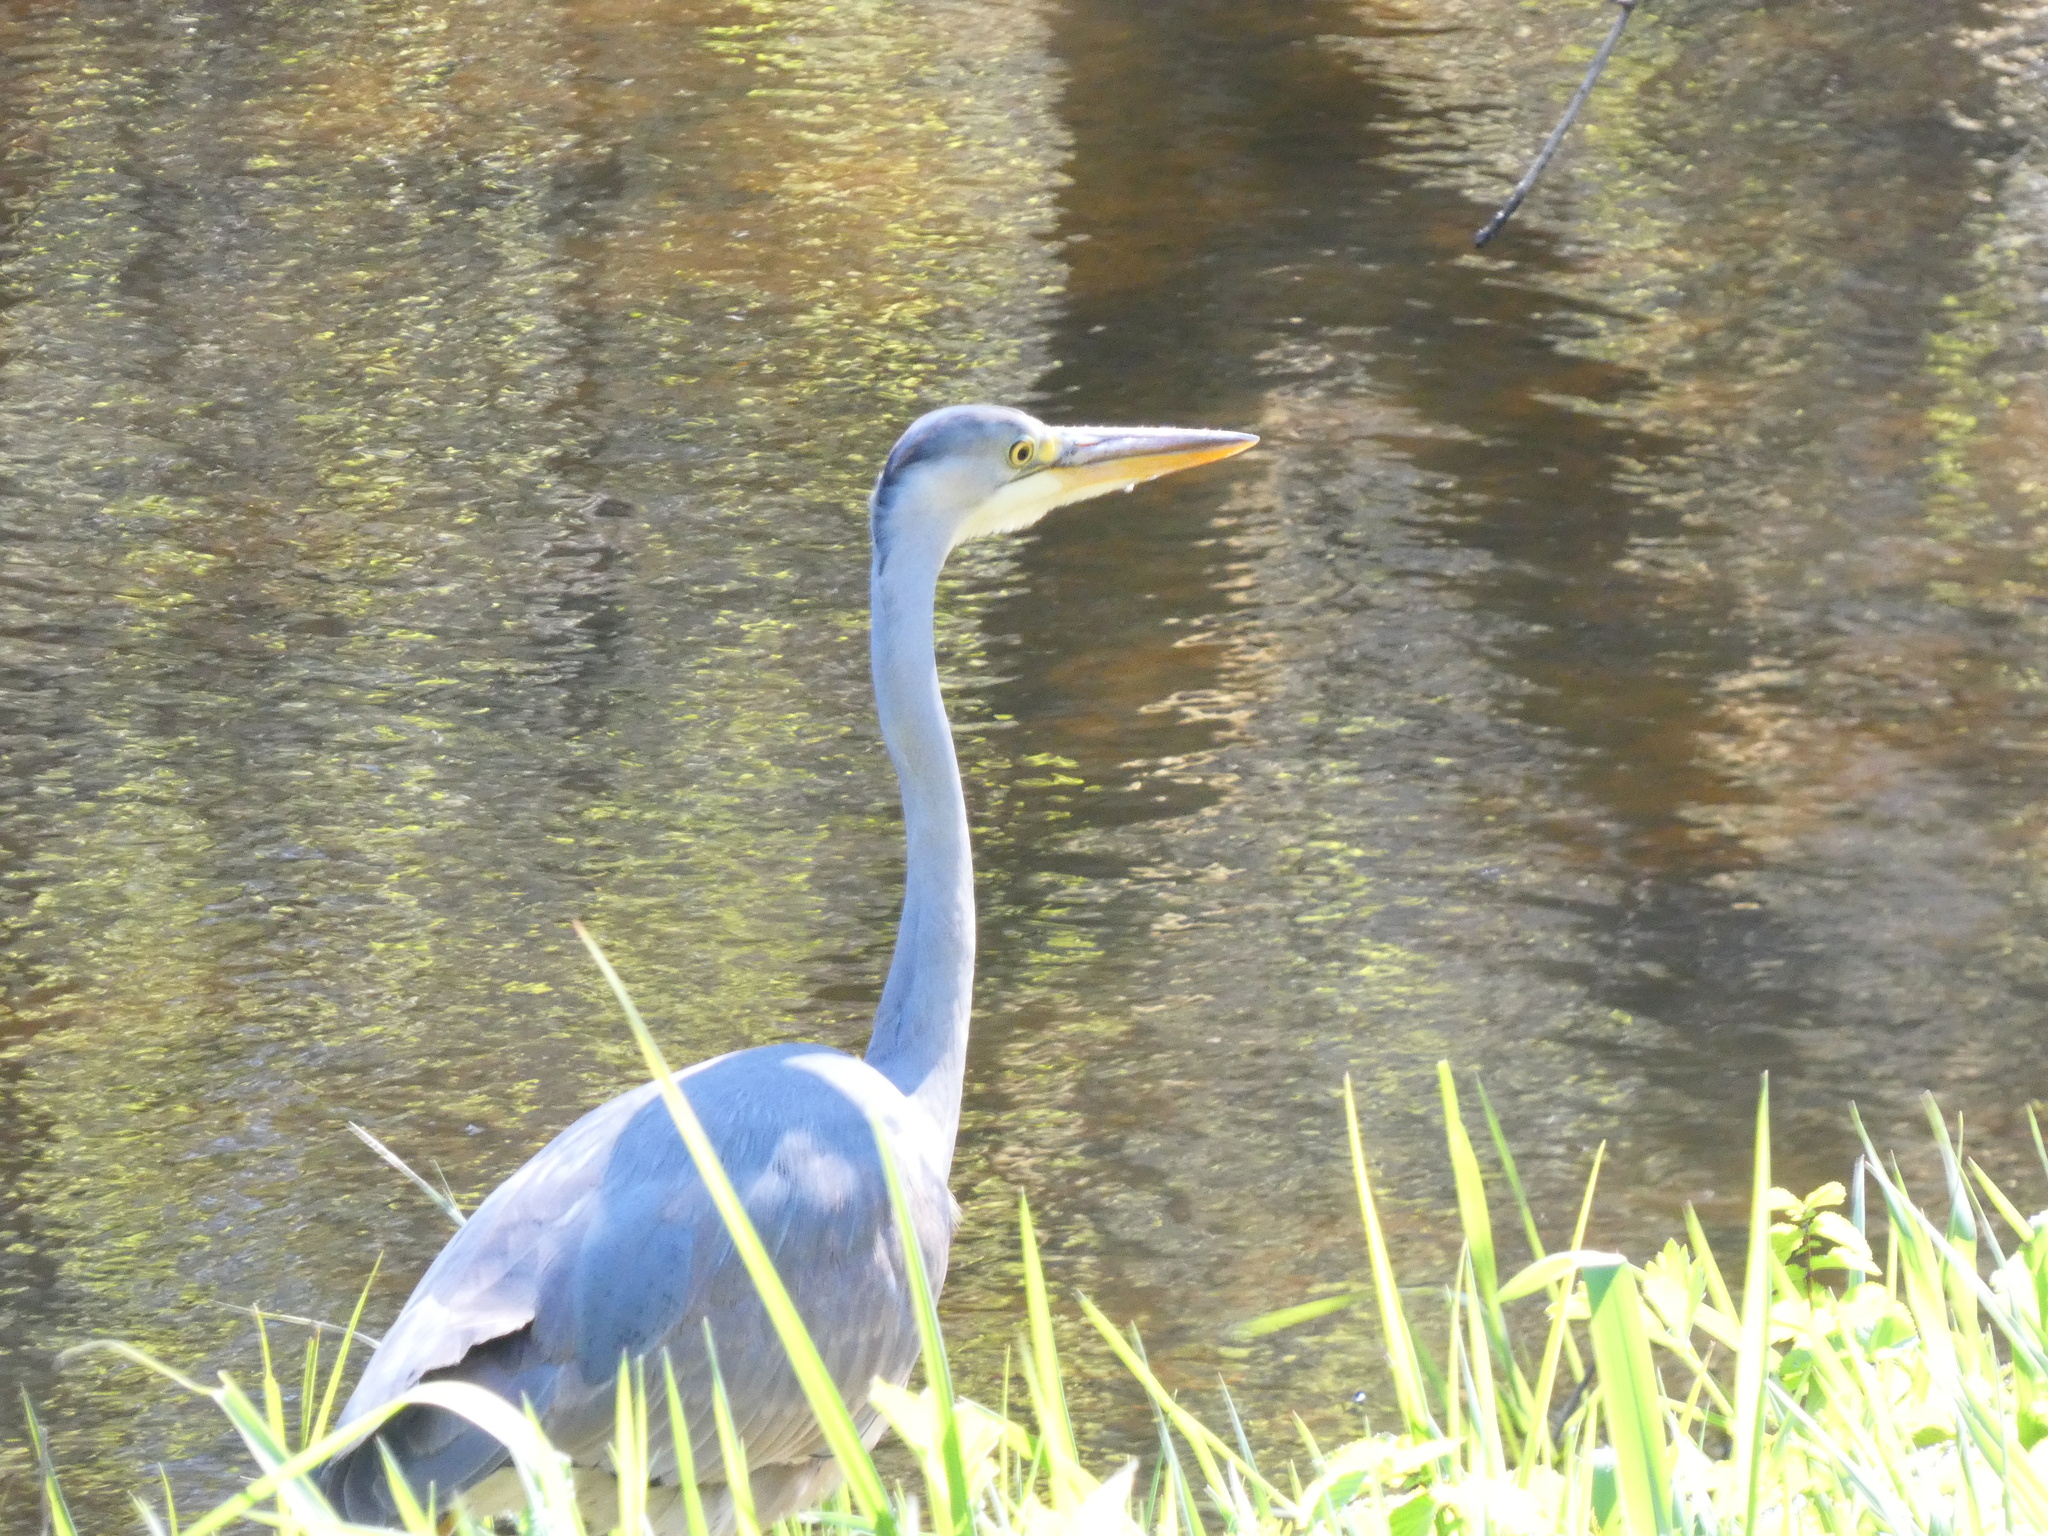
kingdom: Animalia
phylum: Chordata
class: Aves
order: Pelecaniformes
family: Ardeidae
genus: Ardea
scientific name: Ardea cinerea
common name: Grey heron
